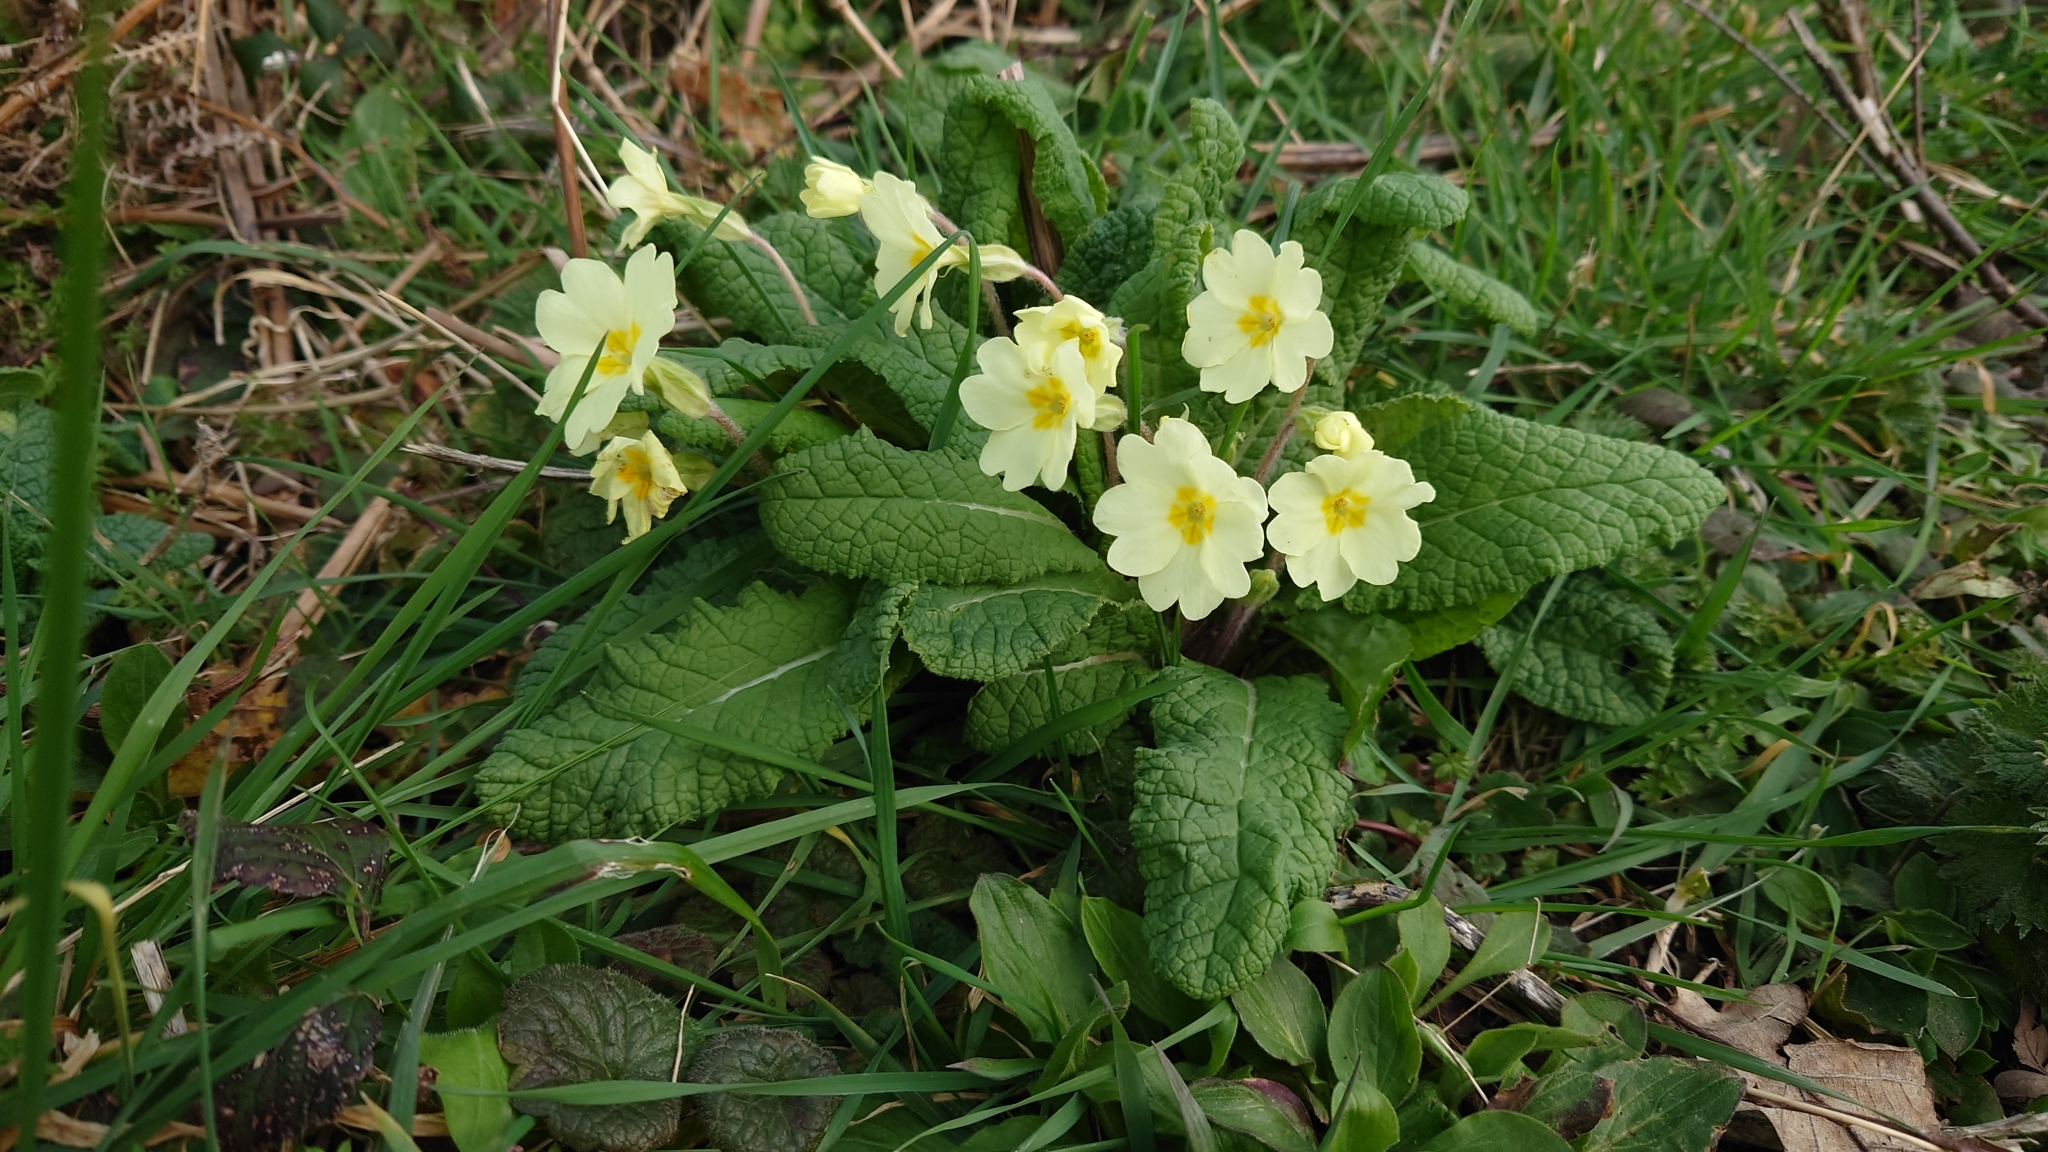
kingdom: Plantae
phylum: Tracheophyta
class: Magnoliopsida
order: Ericales
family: Primulaceae
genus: Primula
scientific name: Primula vulgaris
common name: Primrose
